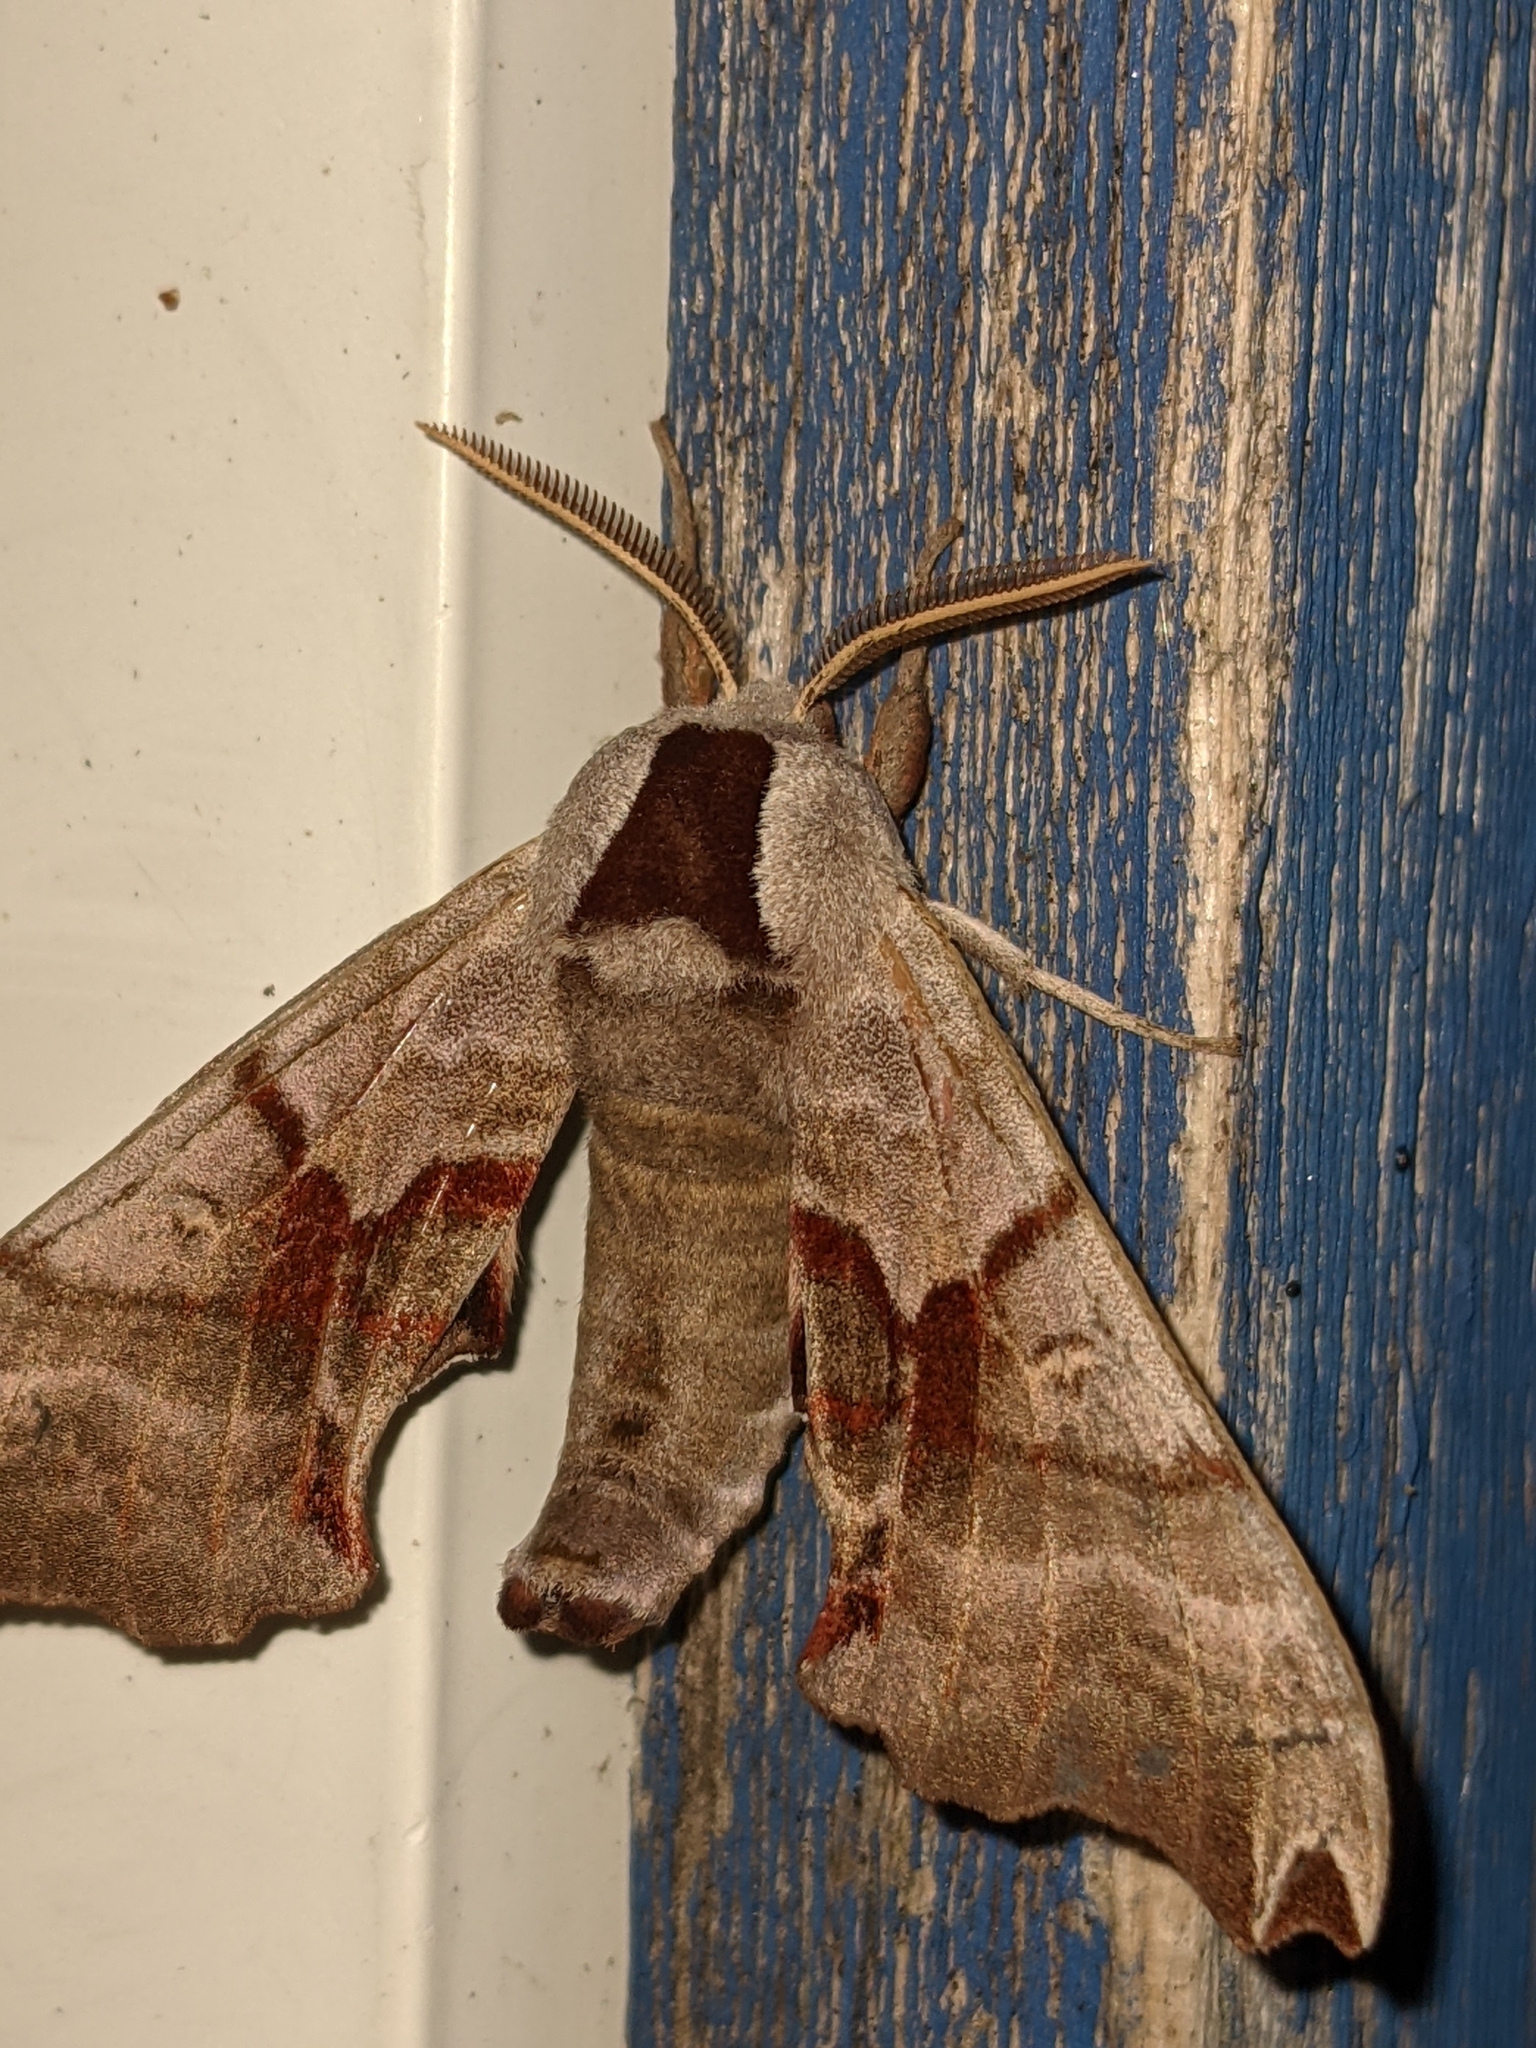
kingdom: Animalia
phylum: Arthropoda
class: Insecta
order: Lepidoptera
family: Sphingidae
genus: Smerinthus
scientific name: Smerinthus jamaicensis
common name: Twin spotted sphinx
